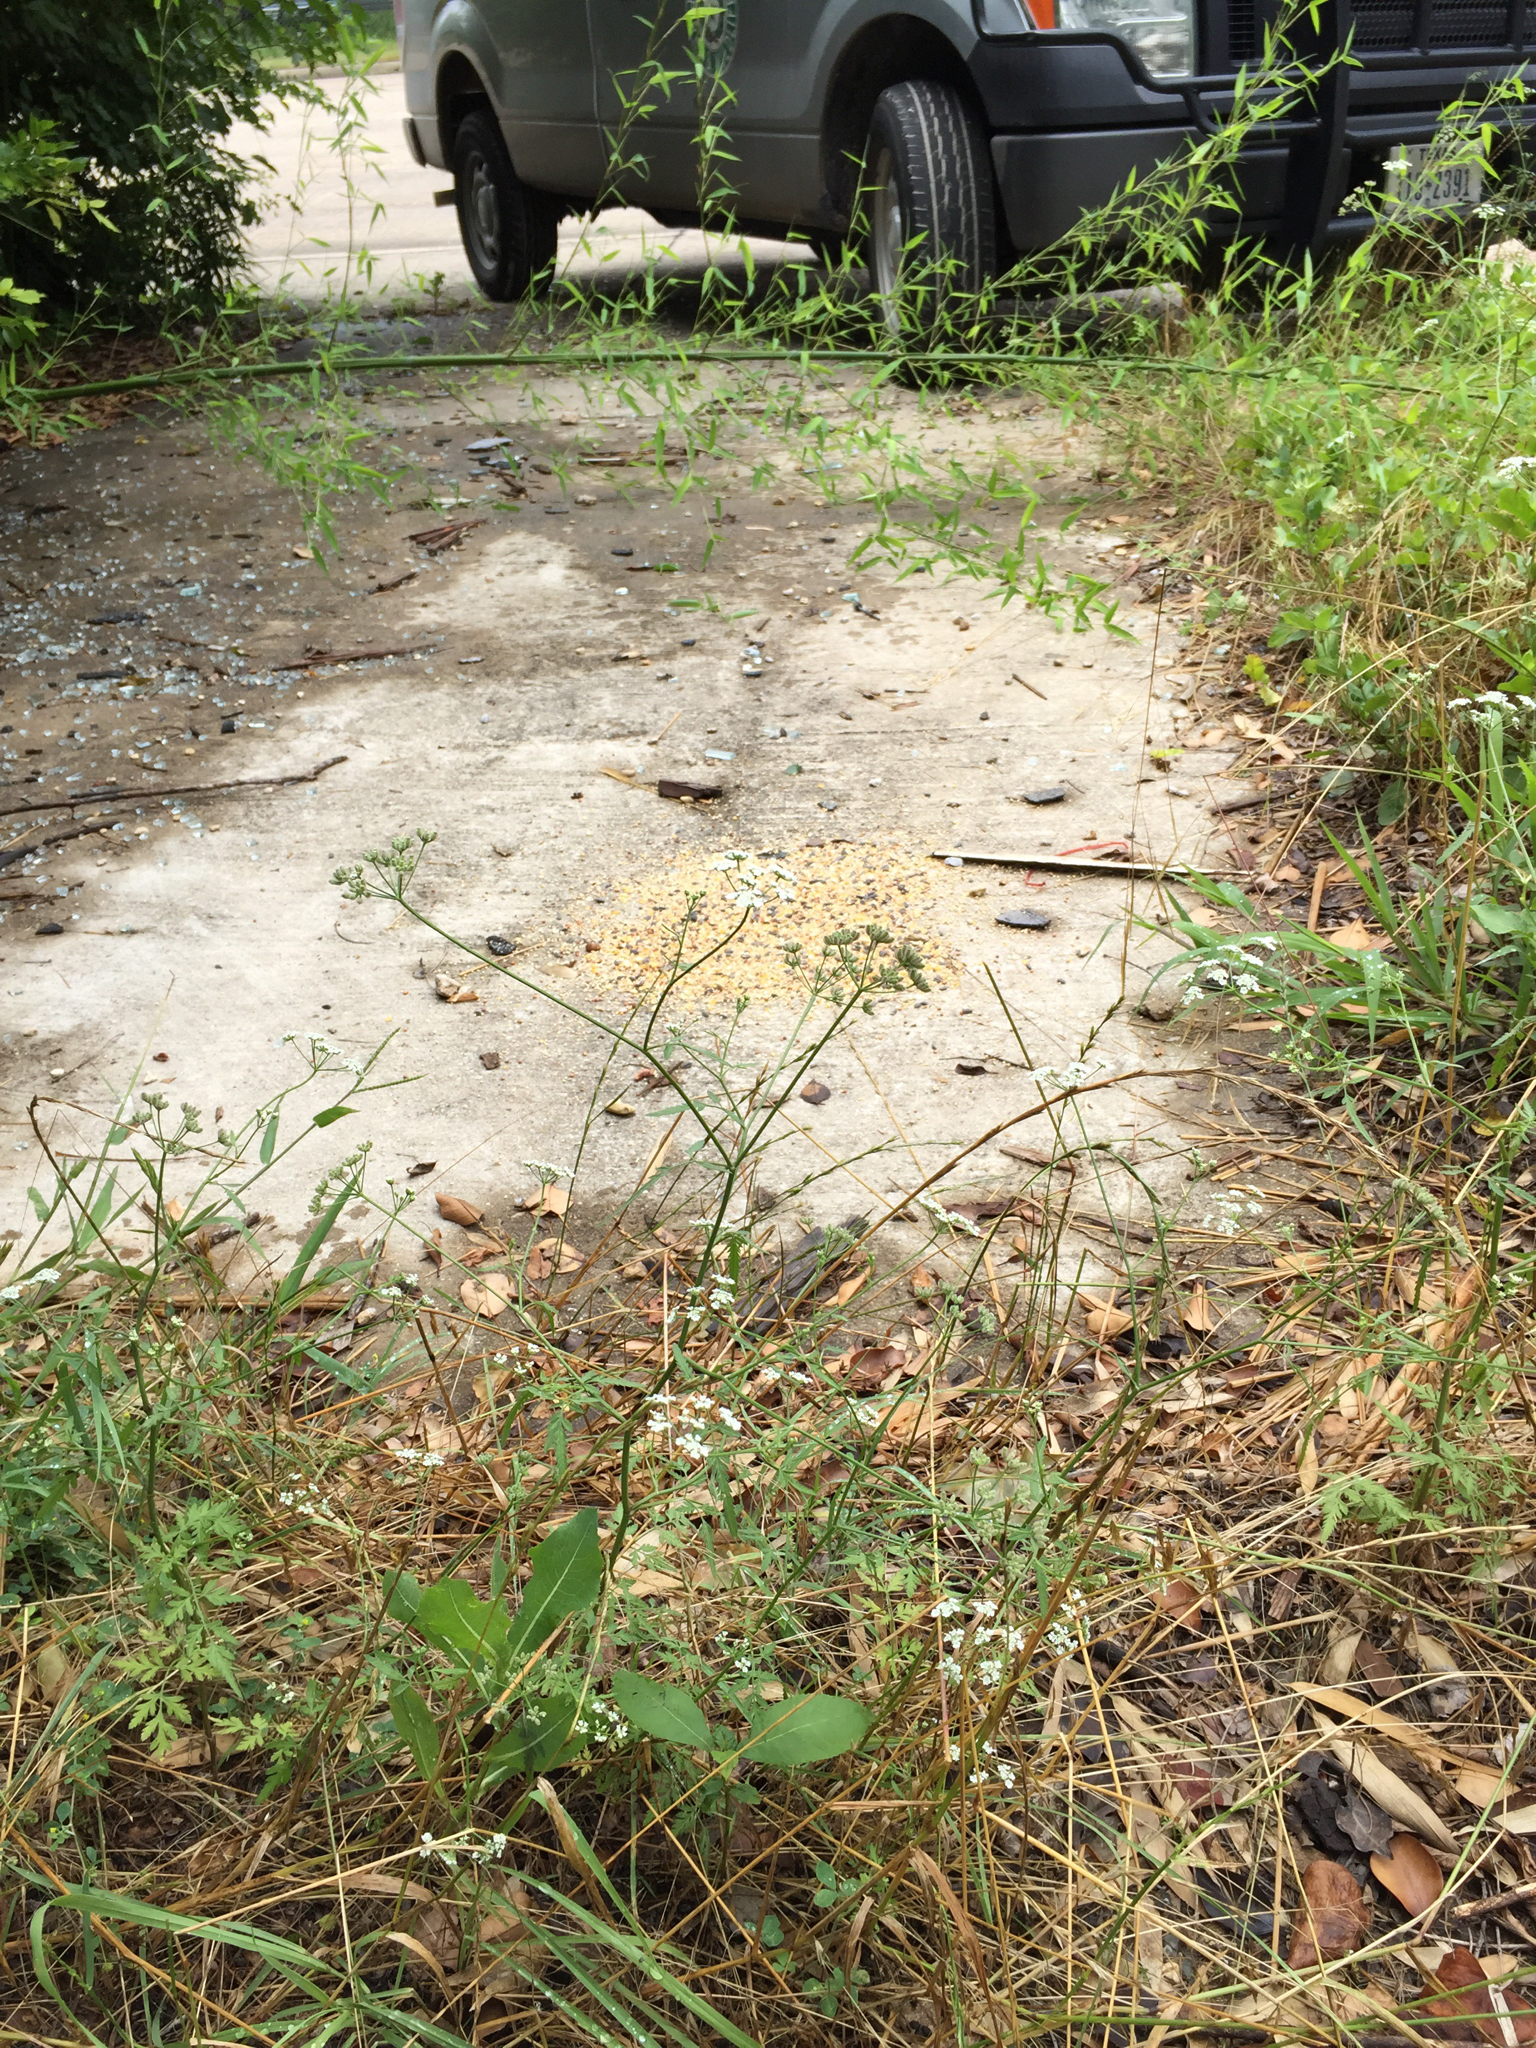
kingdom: Plantae
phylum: Tracheophyta
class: Magnoliopsida
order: Apiales
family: Apiaceae
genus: Torilis
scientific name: Torilis arvensis
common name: Spreading hedge-parsley
